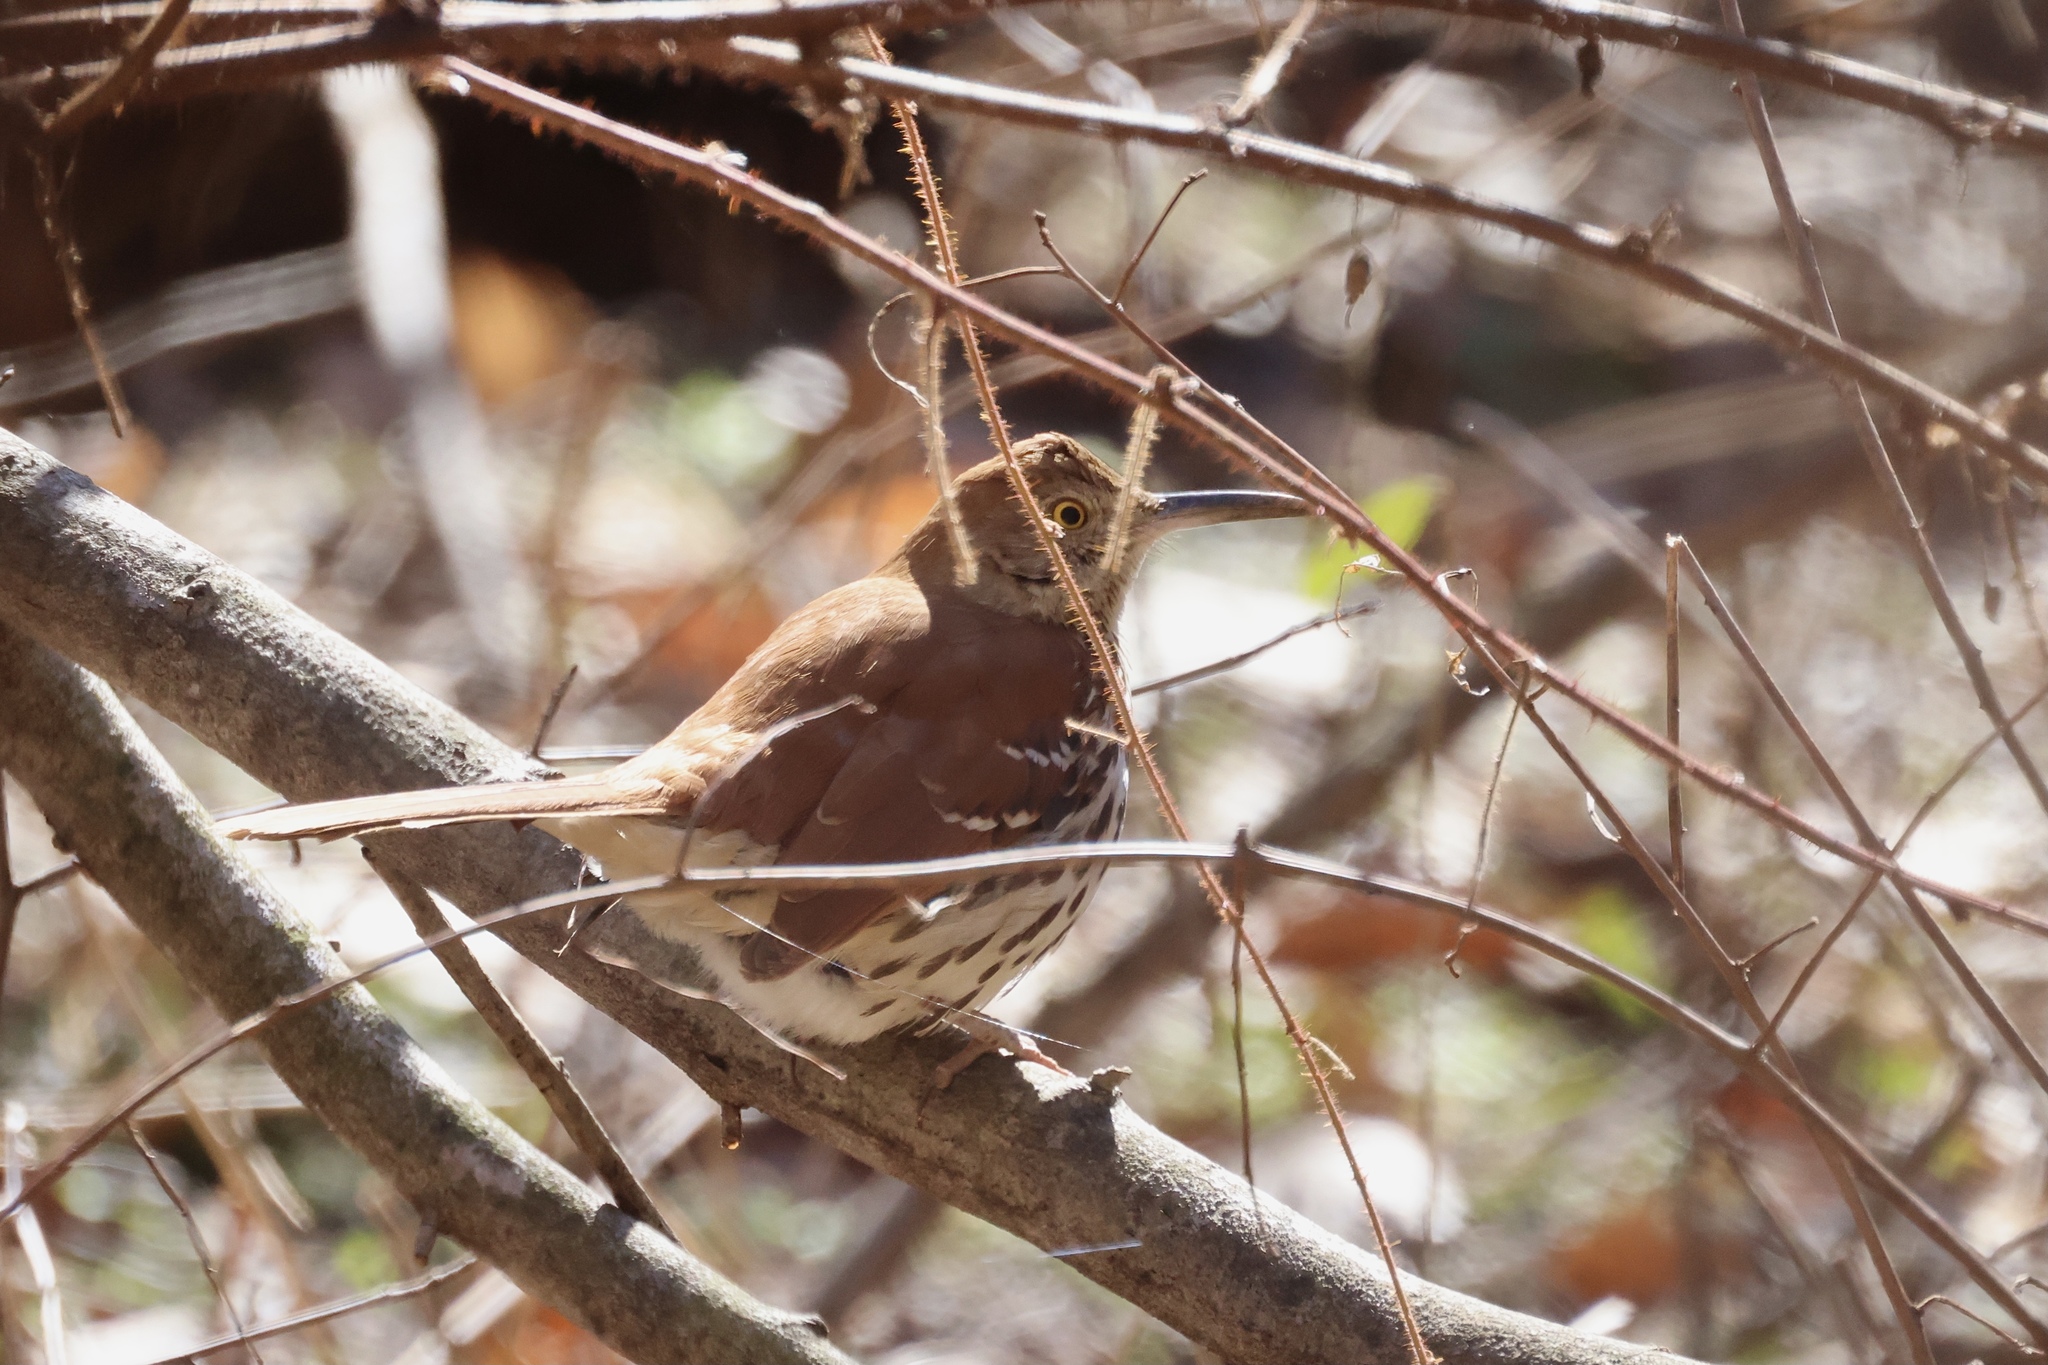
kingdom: Animalia
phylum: Chordata
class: Aves
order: Passeriformes
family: Mimidae
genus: Toxostoma
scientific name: Toxostoma rufum
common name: Brown thrasher
